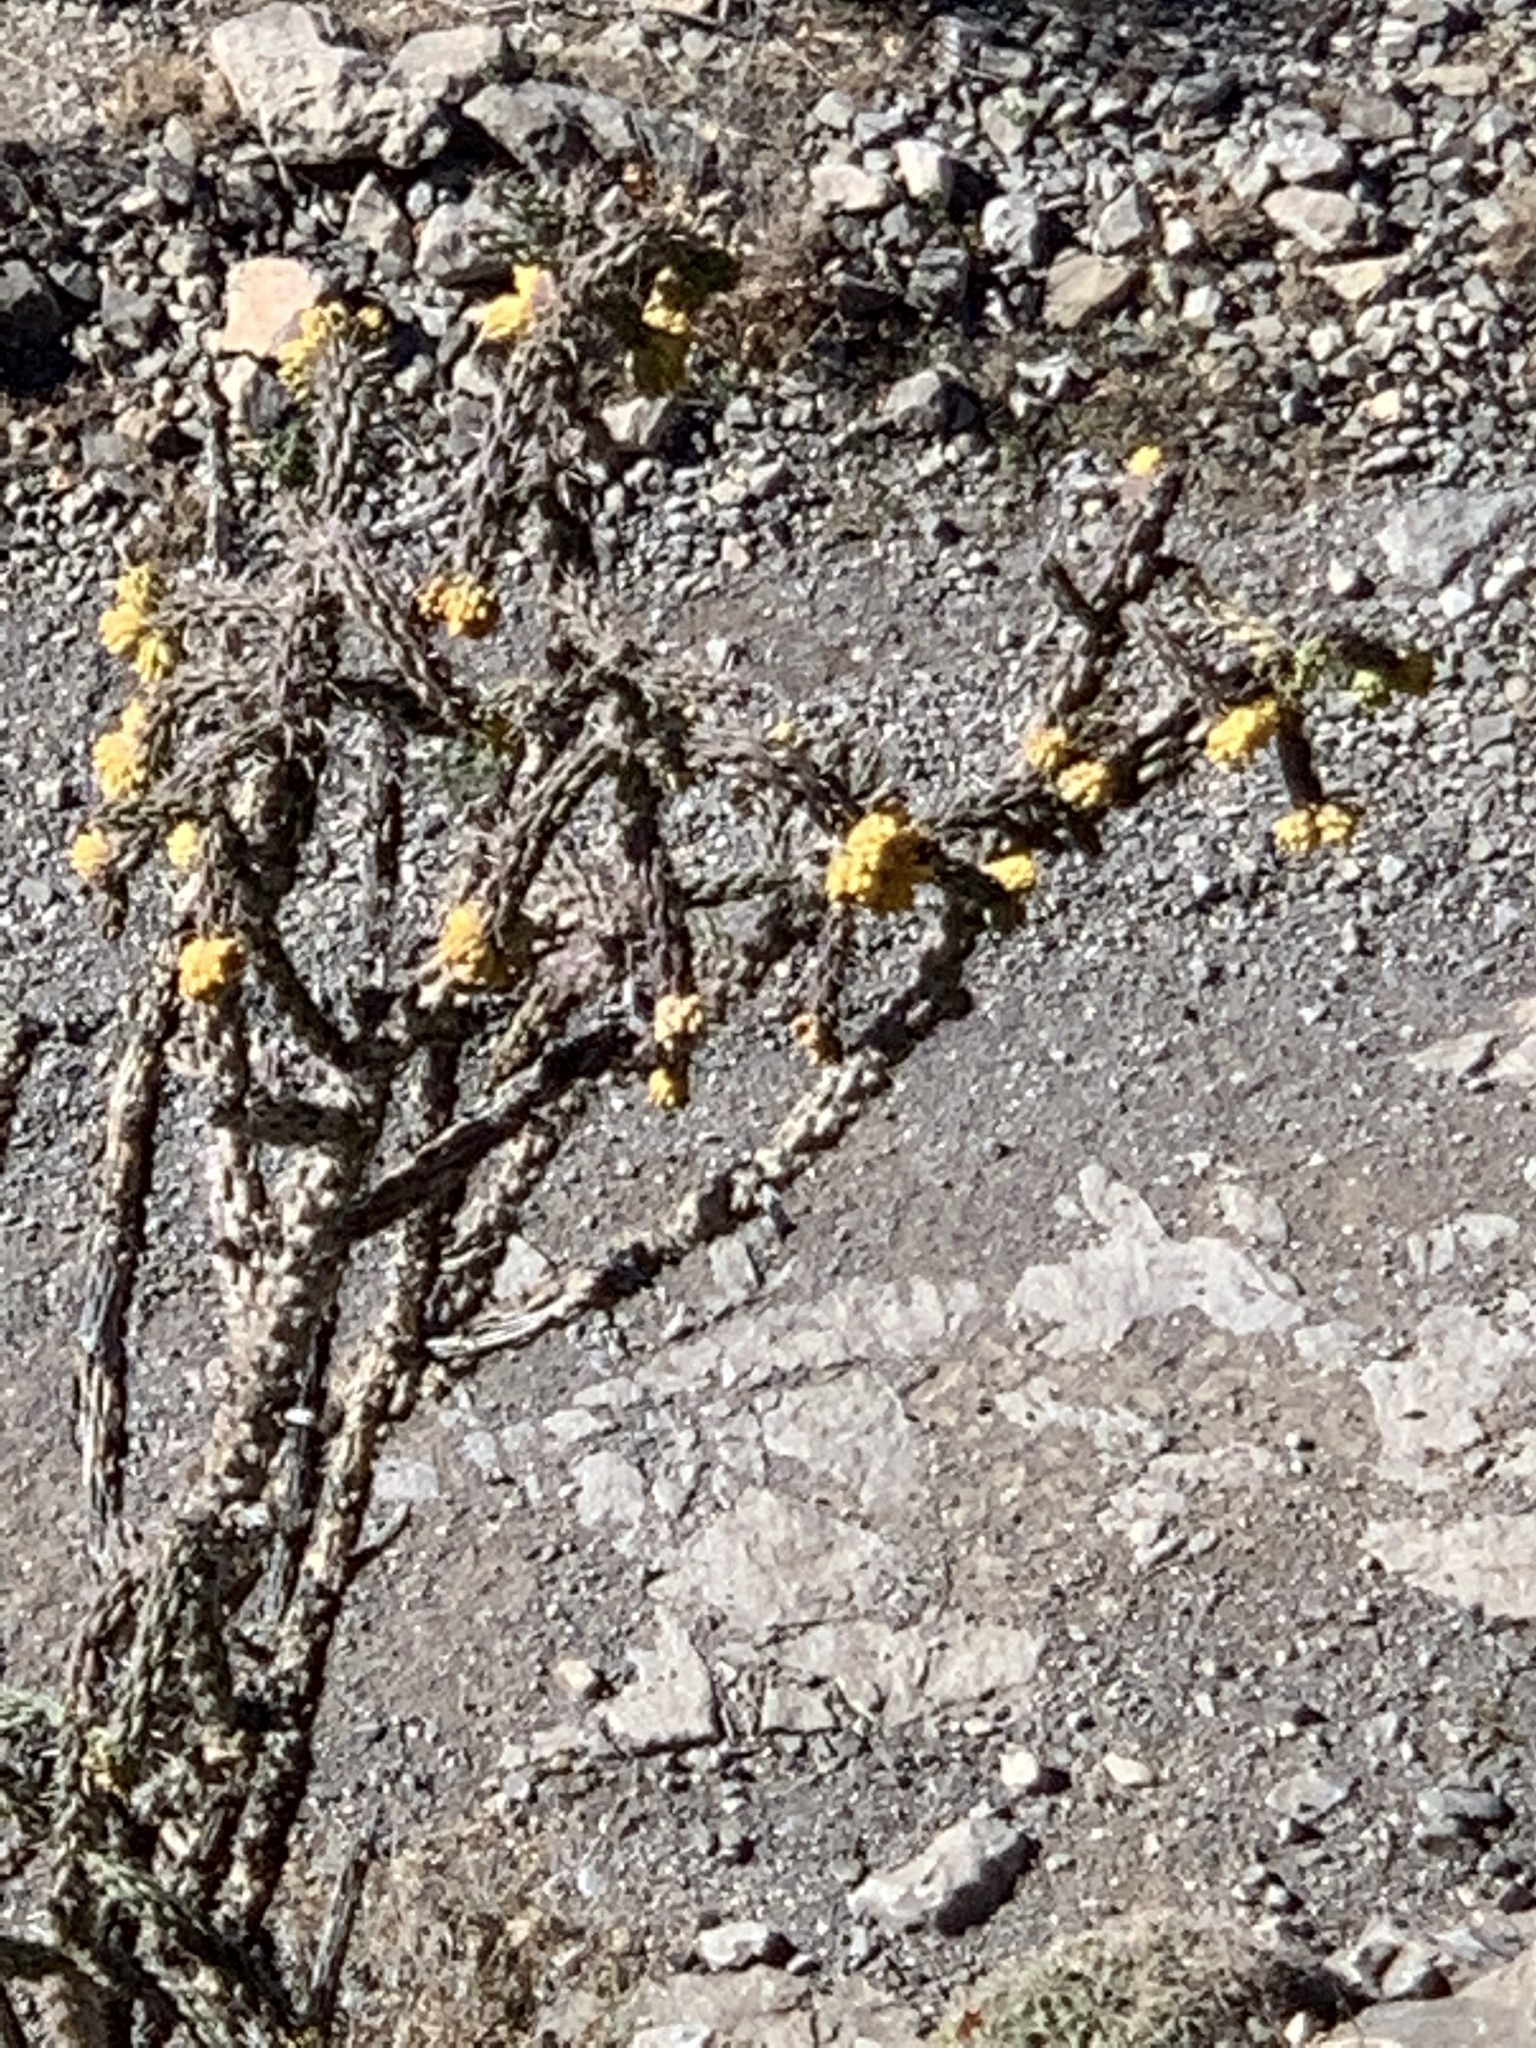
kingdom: Plantae
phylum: Tracheophyta
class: Magnoliopsida
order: Caryophyllales
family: Cactaceae
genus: Cylindropuntia
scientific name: Cylindropuntia imbricata
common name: Candelabrum cactus
